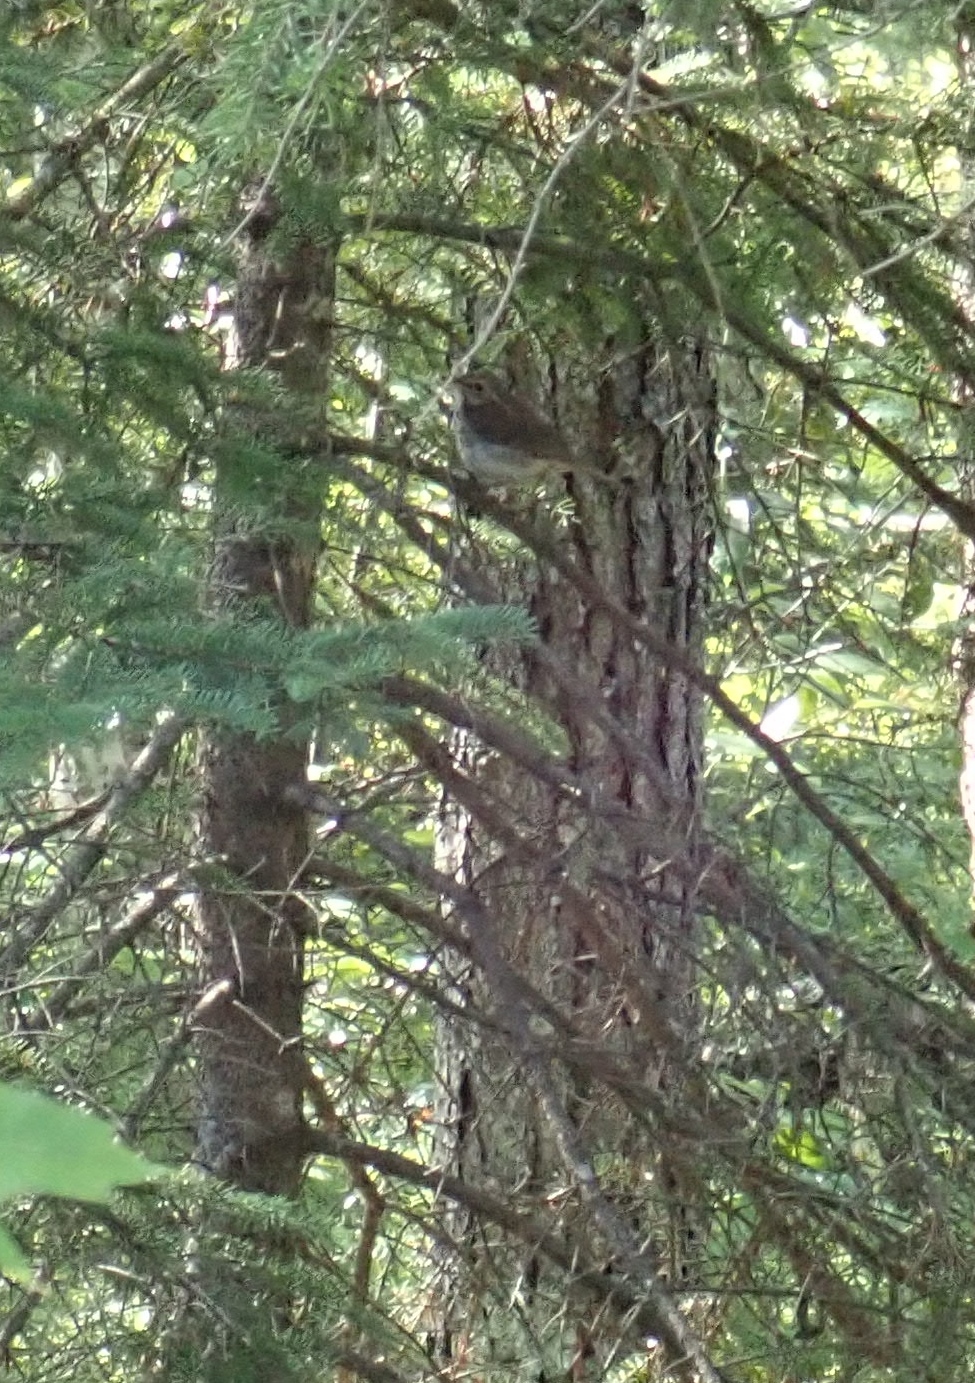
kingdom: Animalia
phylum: Chordata
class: Aves
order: Passeriformes
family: Turdidae
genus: Catharus
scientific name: Catharus guttatus
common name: Hermit thrush
